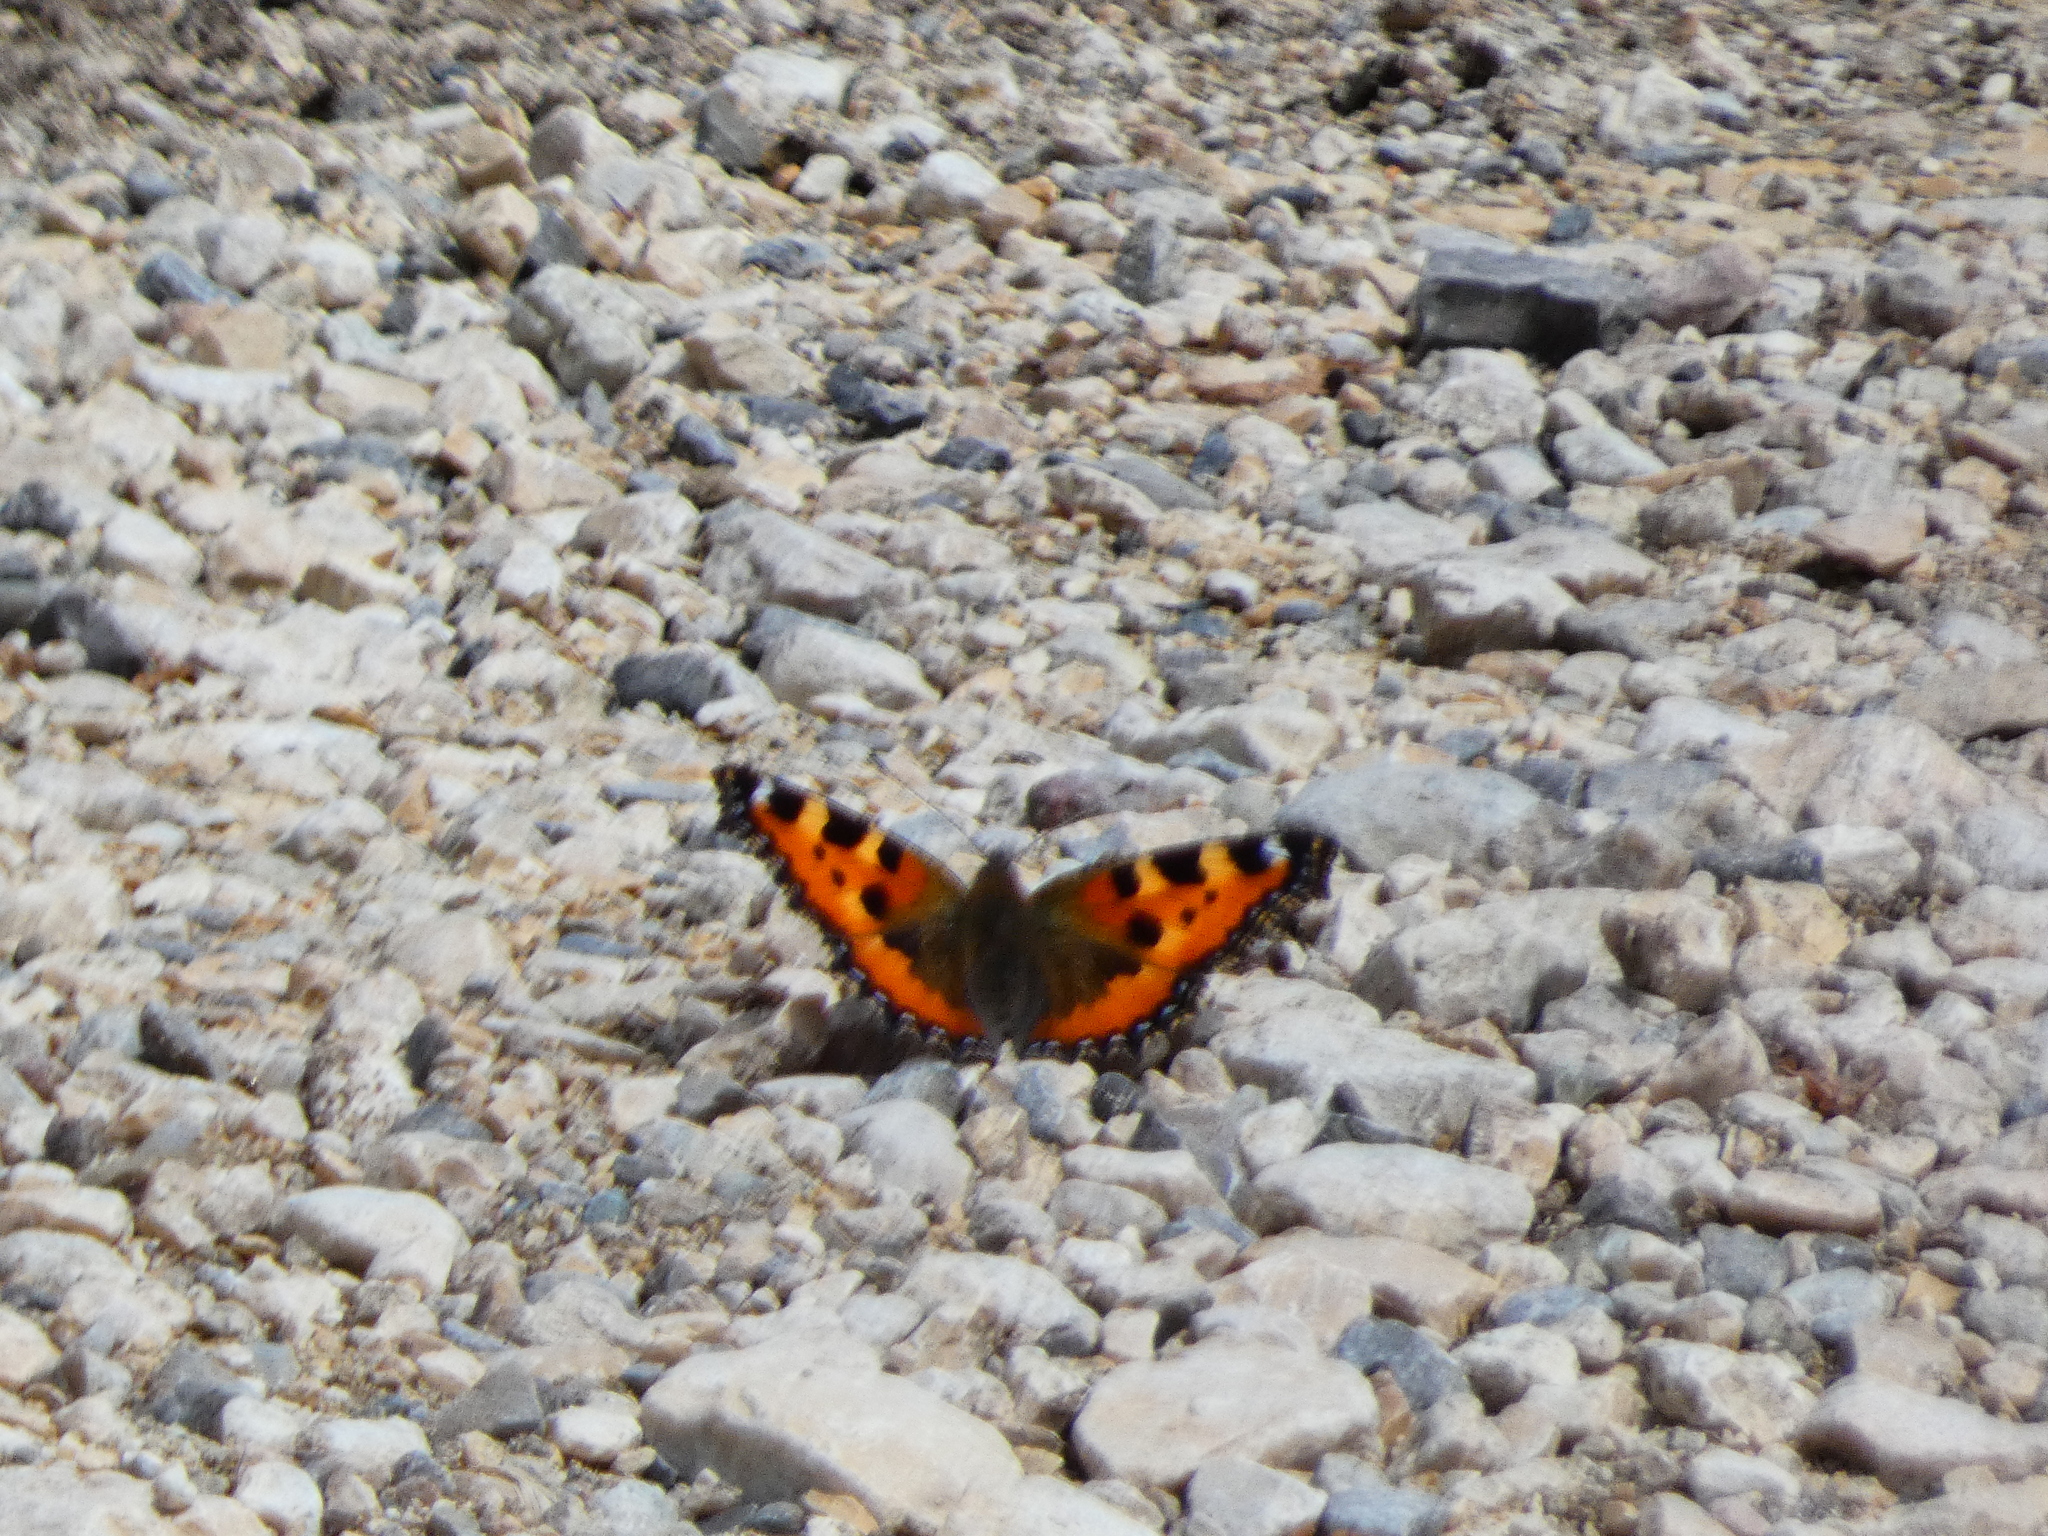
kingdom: Animalia
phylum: Arthropoda
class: Insecta
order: Lepidoptera
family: Nymphalidae
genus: Aglais
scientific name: Aglais urticae
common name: Small tortoiseshell
